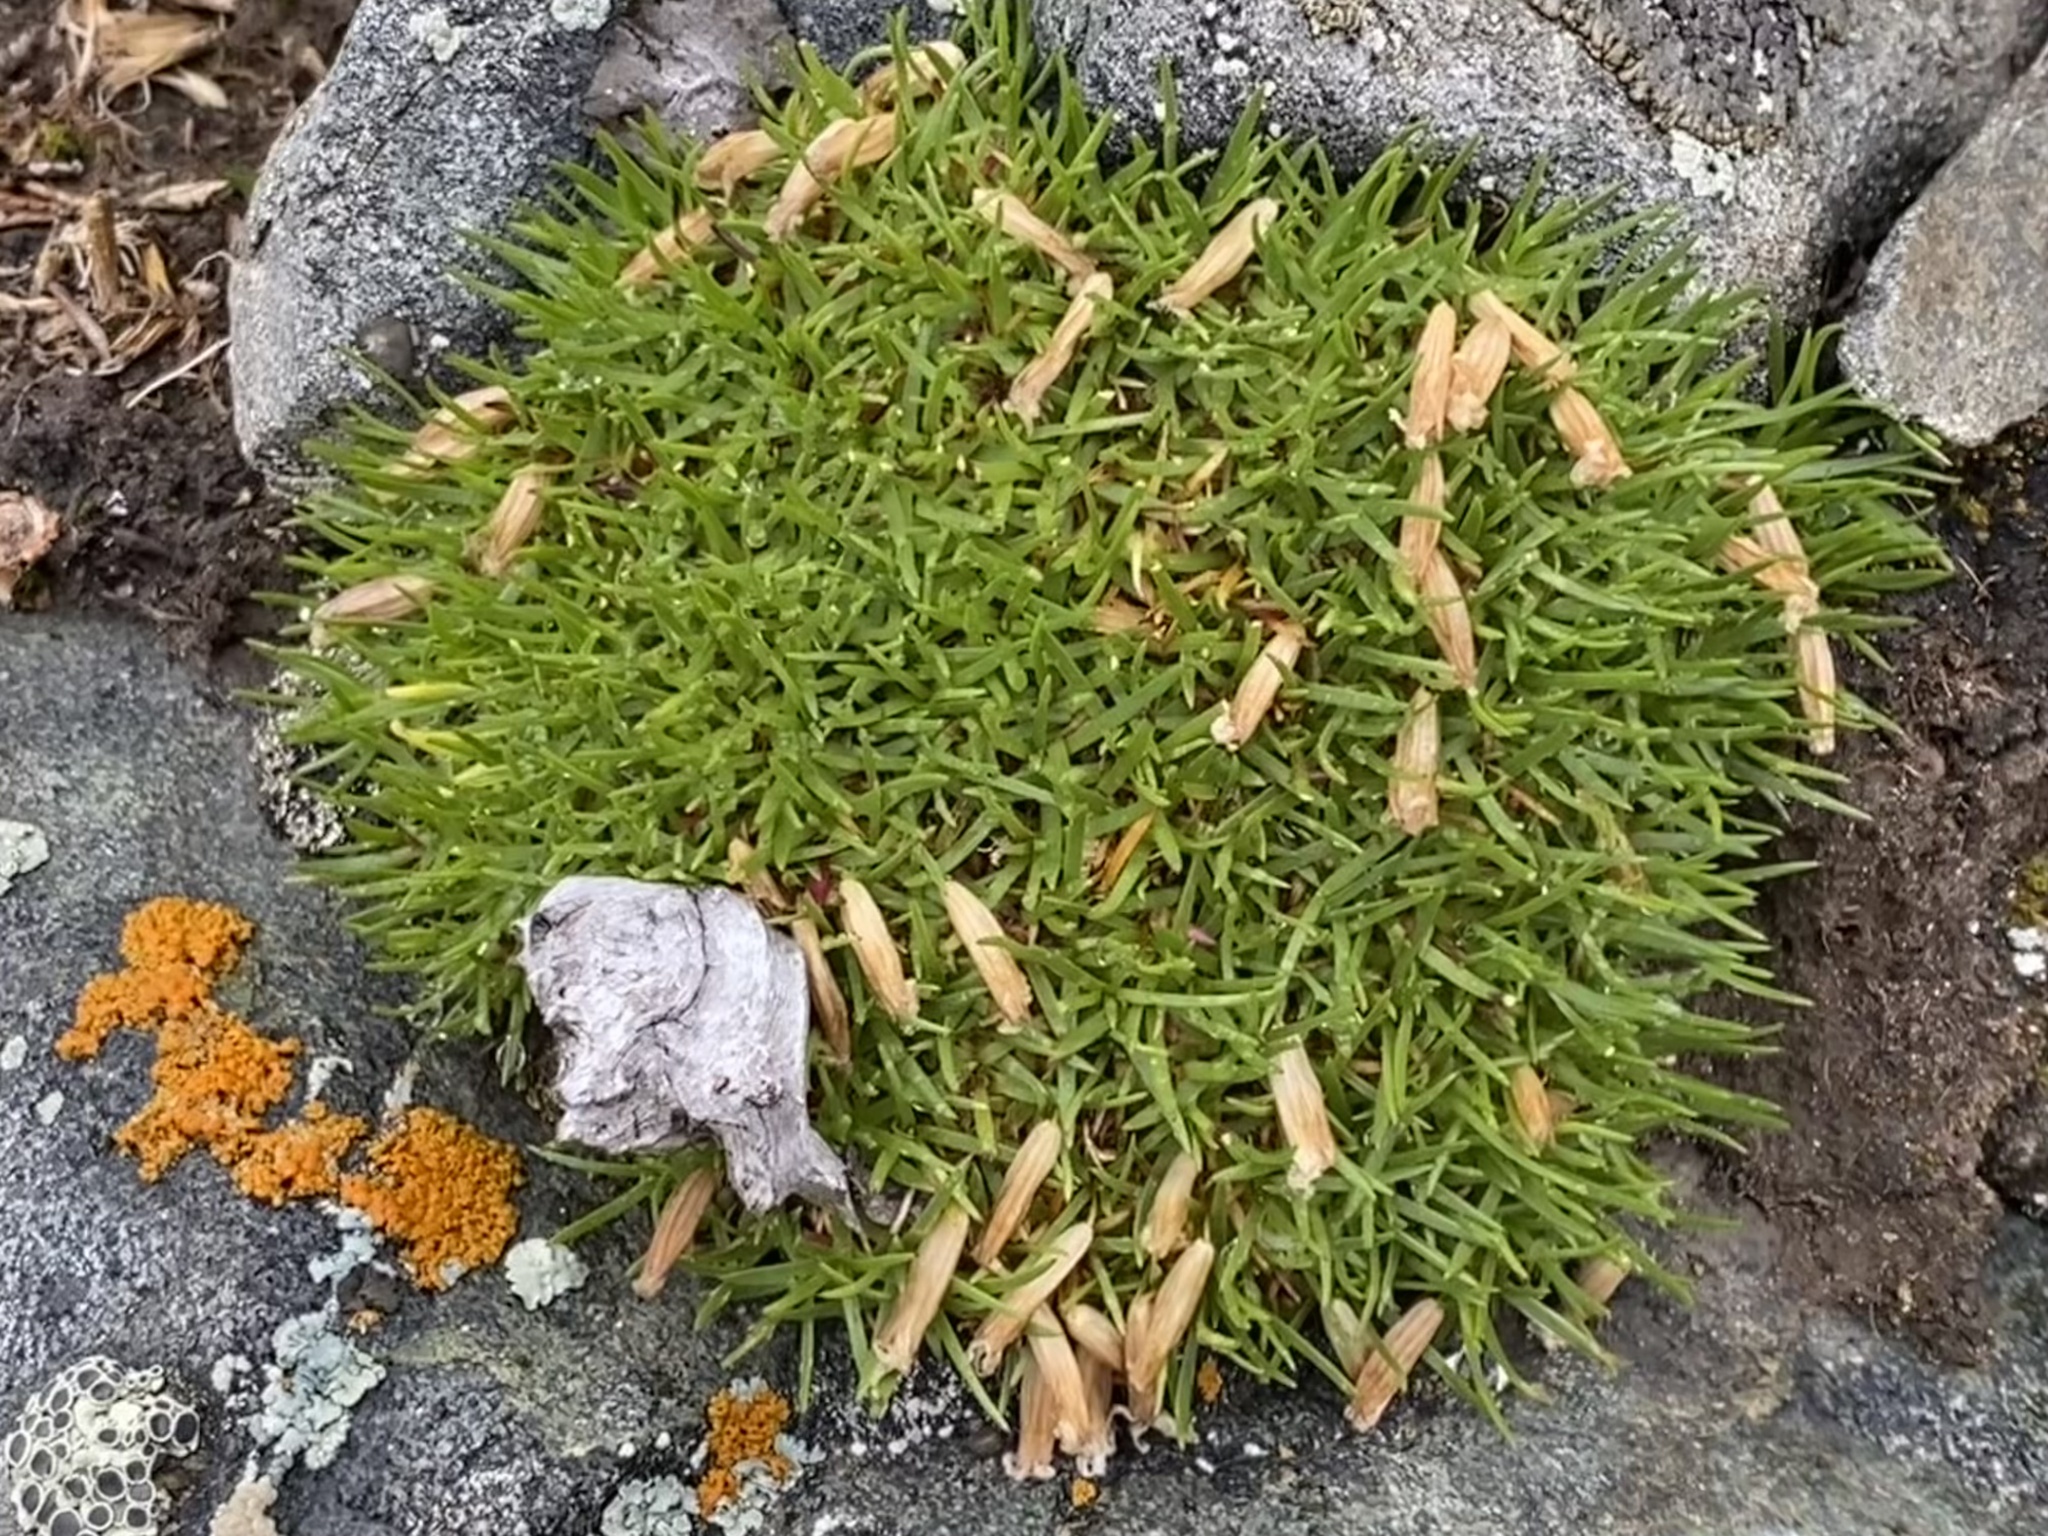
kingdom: Plantae
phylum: Tracheophyta
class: Magnoliopsida
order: Caryophyllales
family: Caryophyllaceae
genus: Silene
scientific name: Silene acaulis
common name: Moss campion
